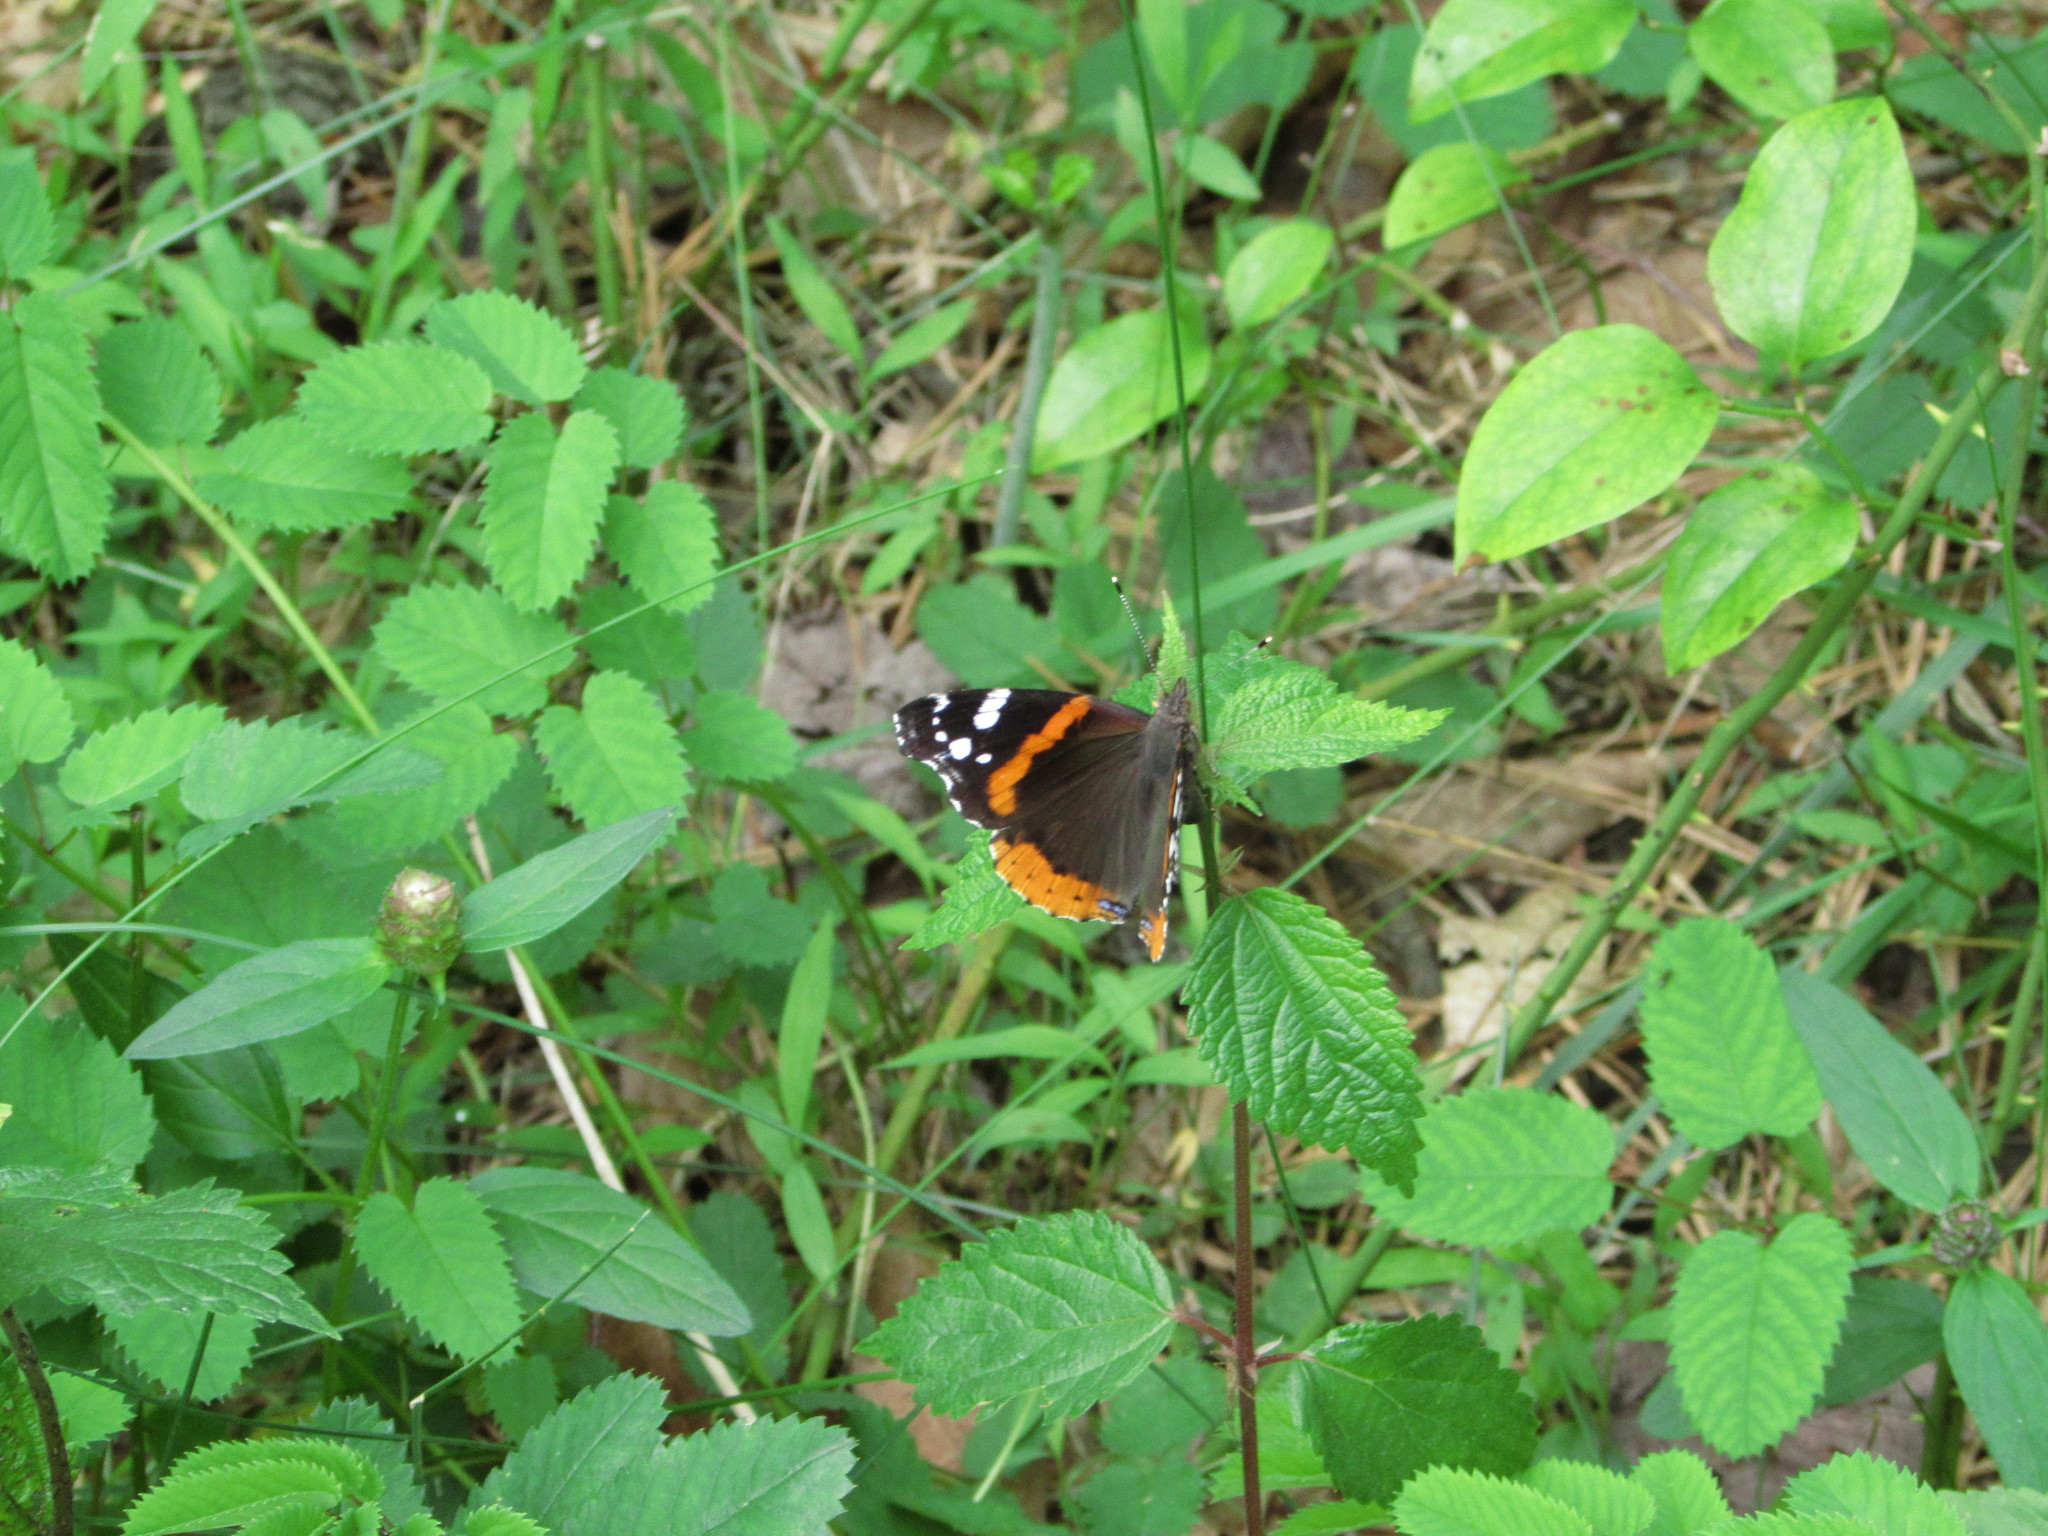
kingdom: Animalia
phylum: Arthropoda
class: Insecta
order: Lepidoptera
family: Nymphalidae
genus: Vanessa
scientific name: Vanessa atalanta
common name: Red admiral
